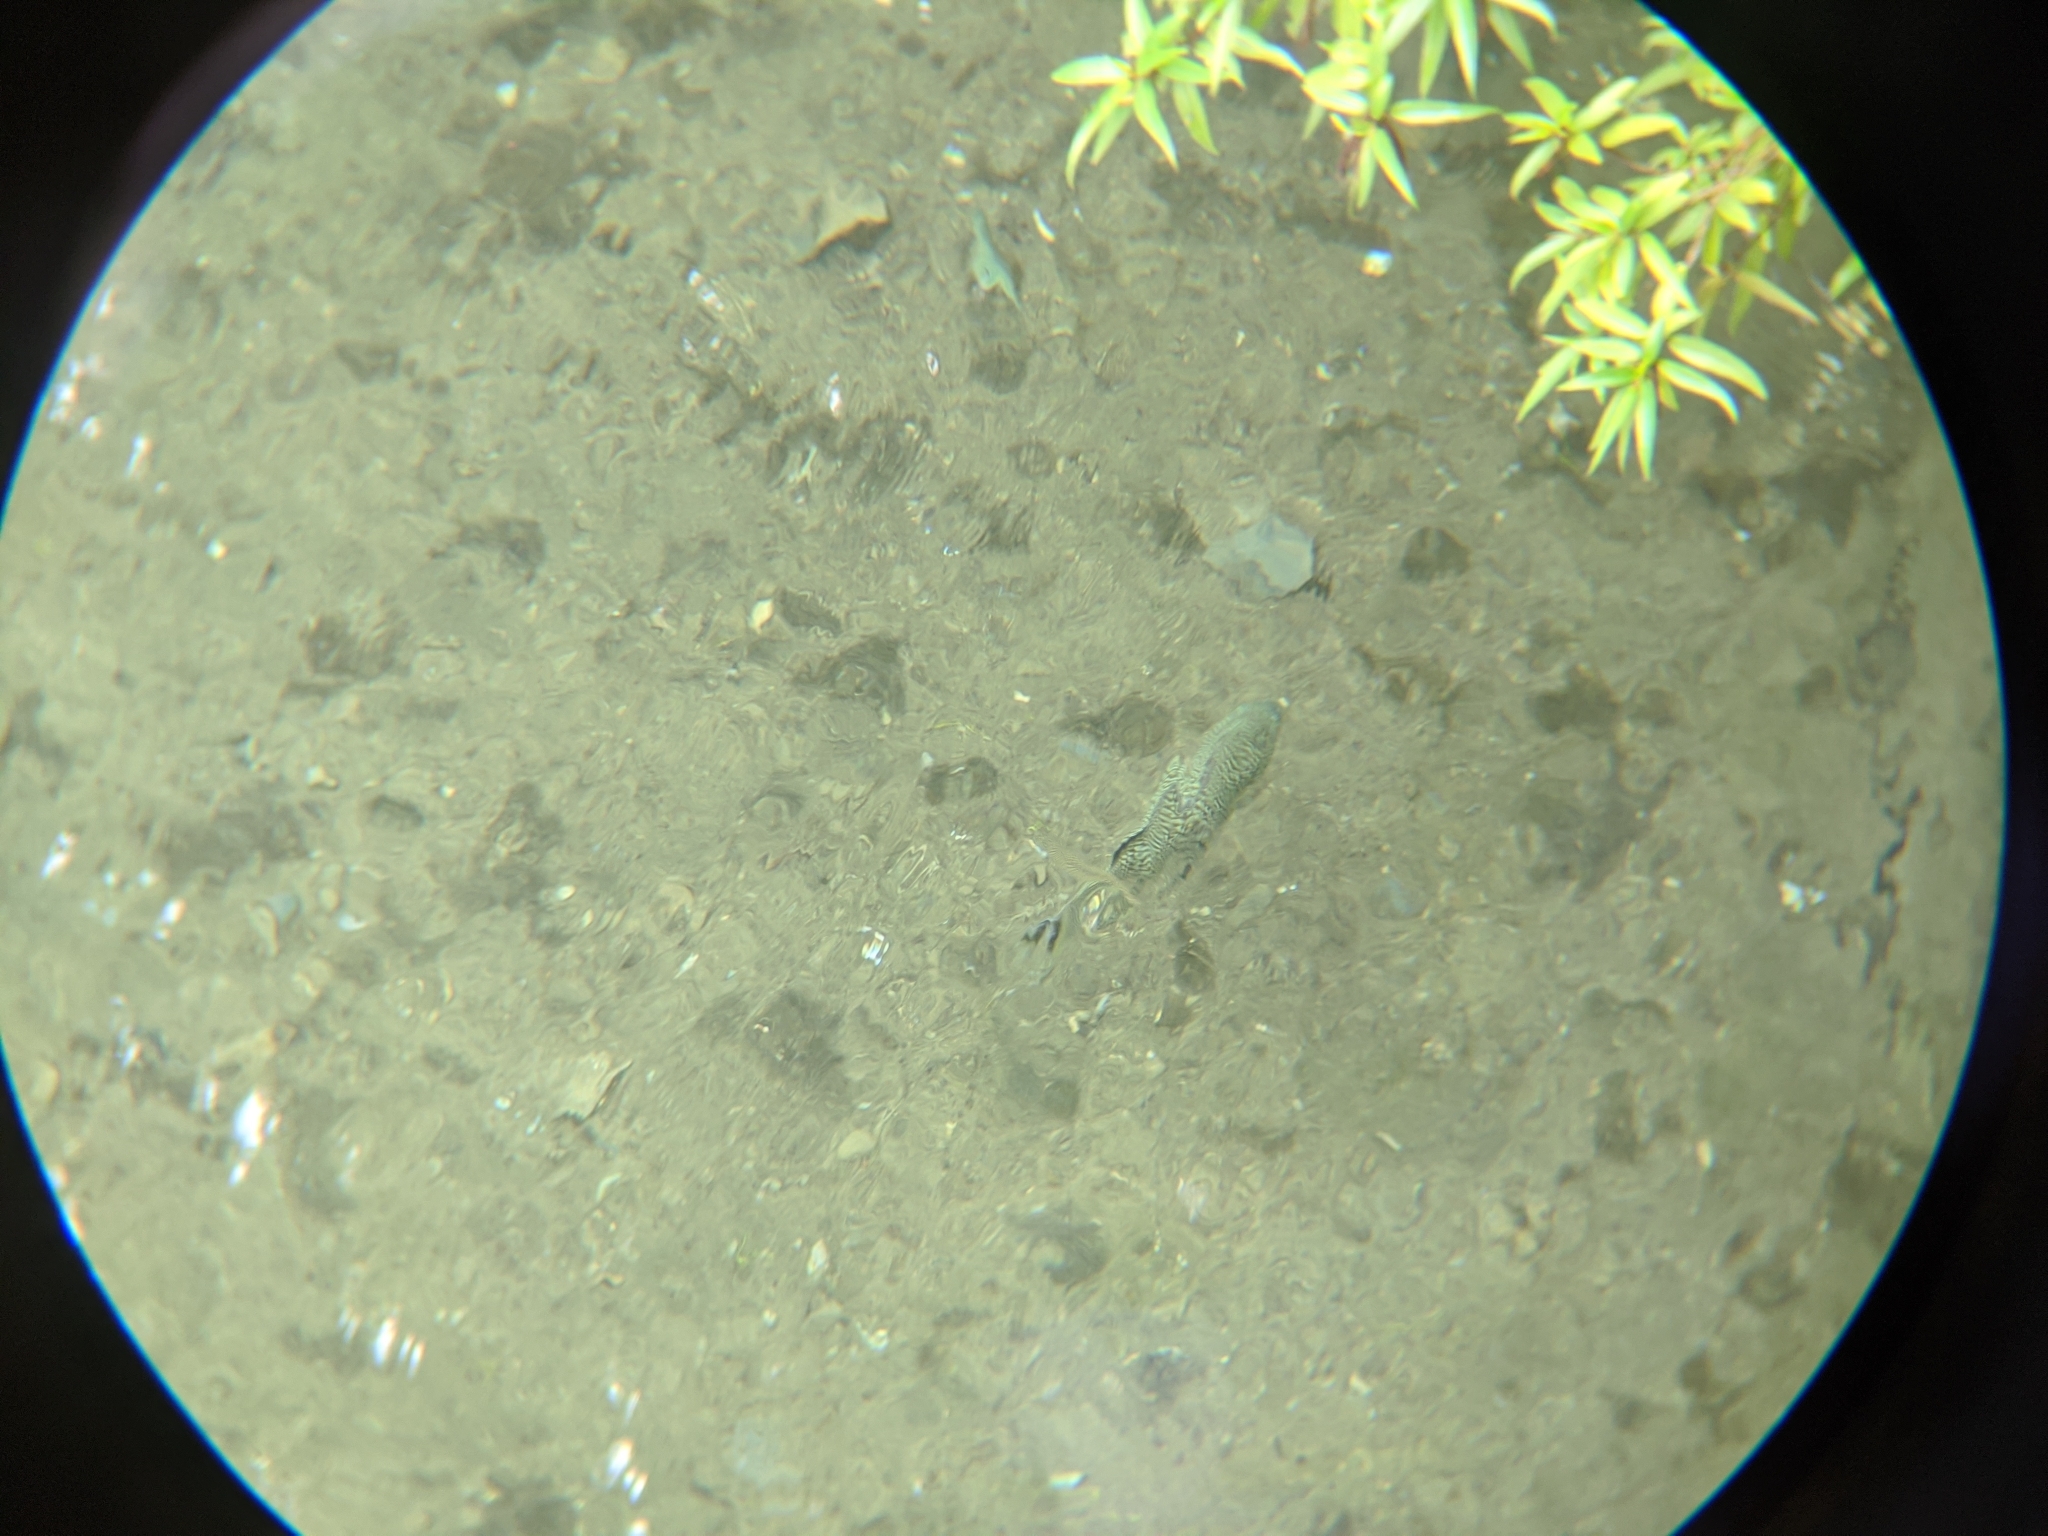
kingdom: Animalia
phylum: Chordata
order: Perciformes
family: Kuhliidae
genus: Kuhlia
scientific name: Kuhlia rupestris
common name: Rock flagtail
